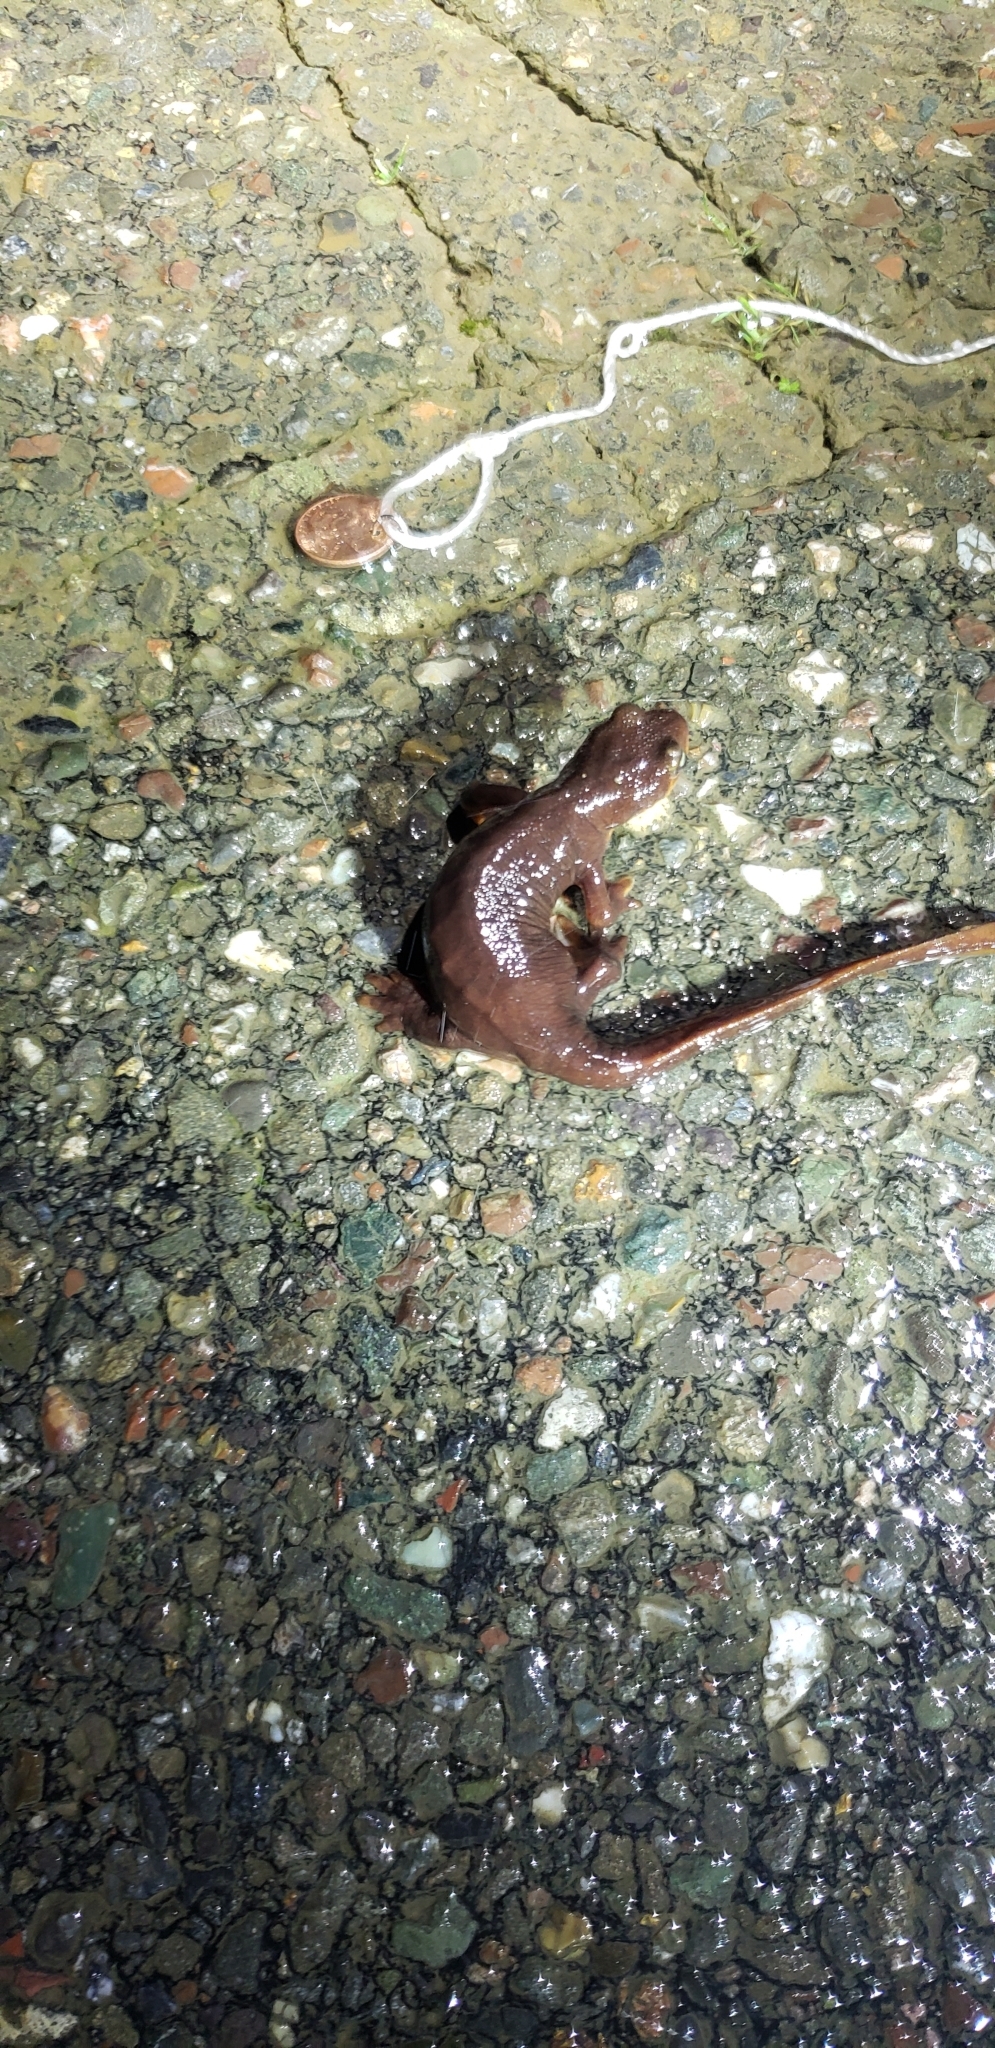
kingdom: Animalia
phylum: Chordata
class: Amphibia
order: Caudata
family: Salamandridae
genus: Taricha
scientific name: Taricha torosa
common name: California newt
